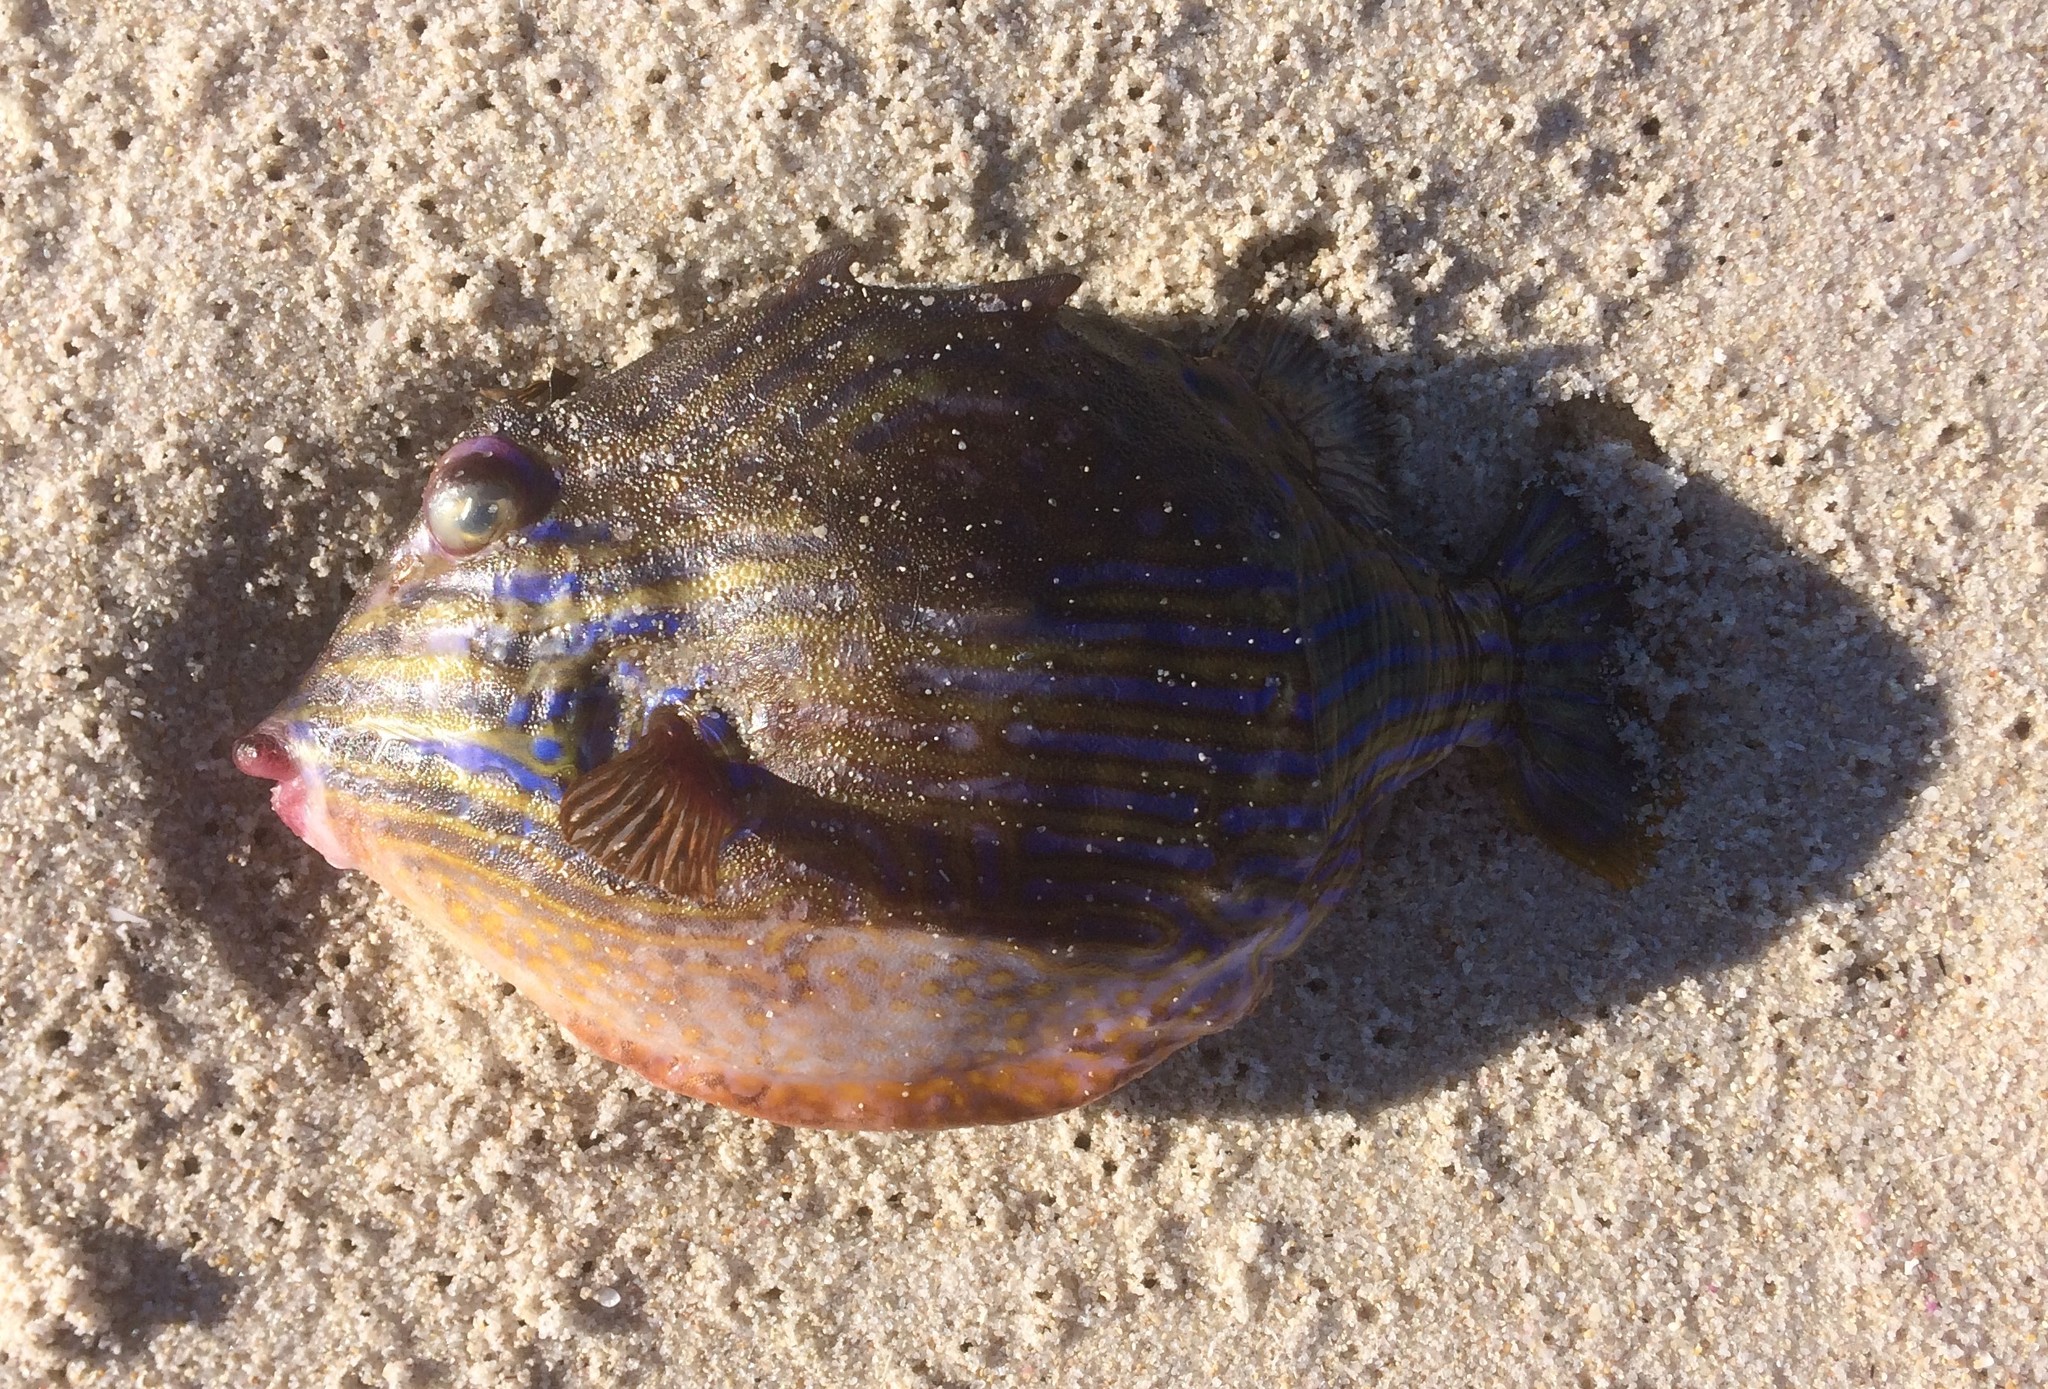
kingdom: Animalia
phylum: Chordata
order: Tetraodontiformes
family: Aracanidae
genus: Aracana
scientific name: Aracana aurita
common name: Shaw’s cowfish
